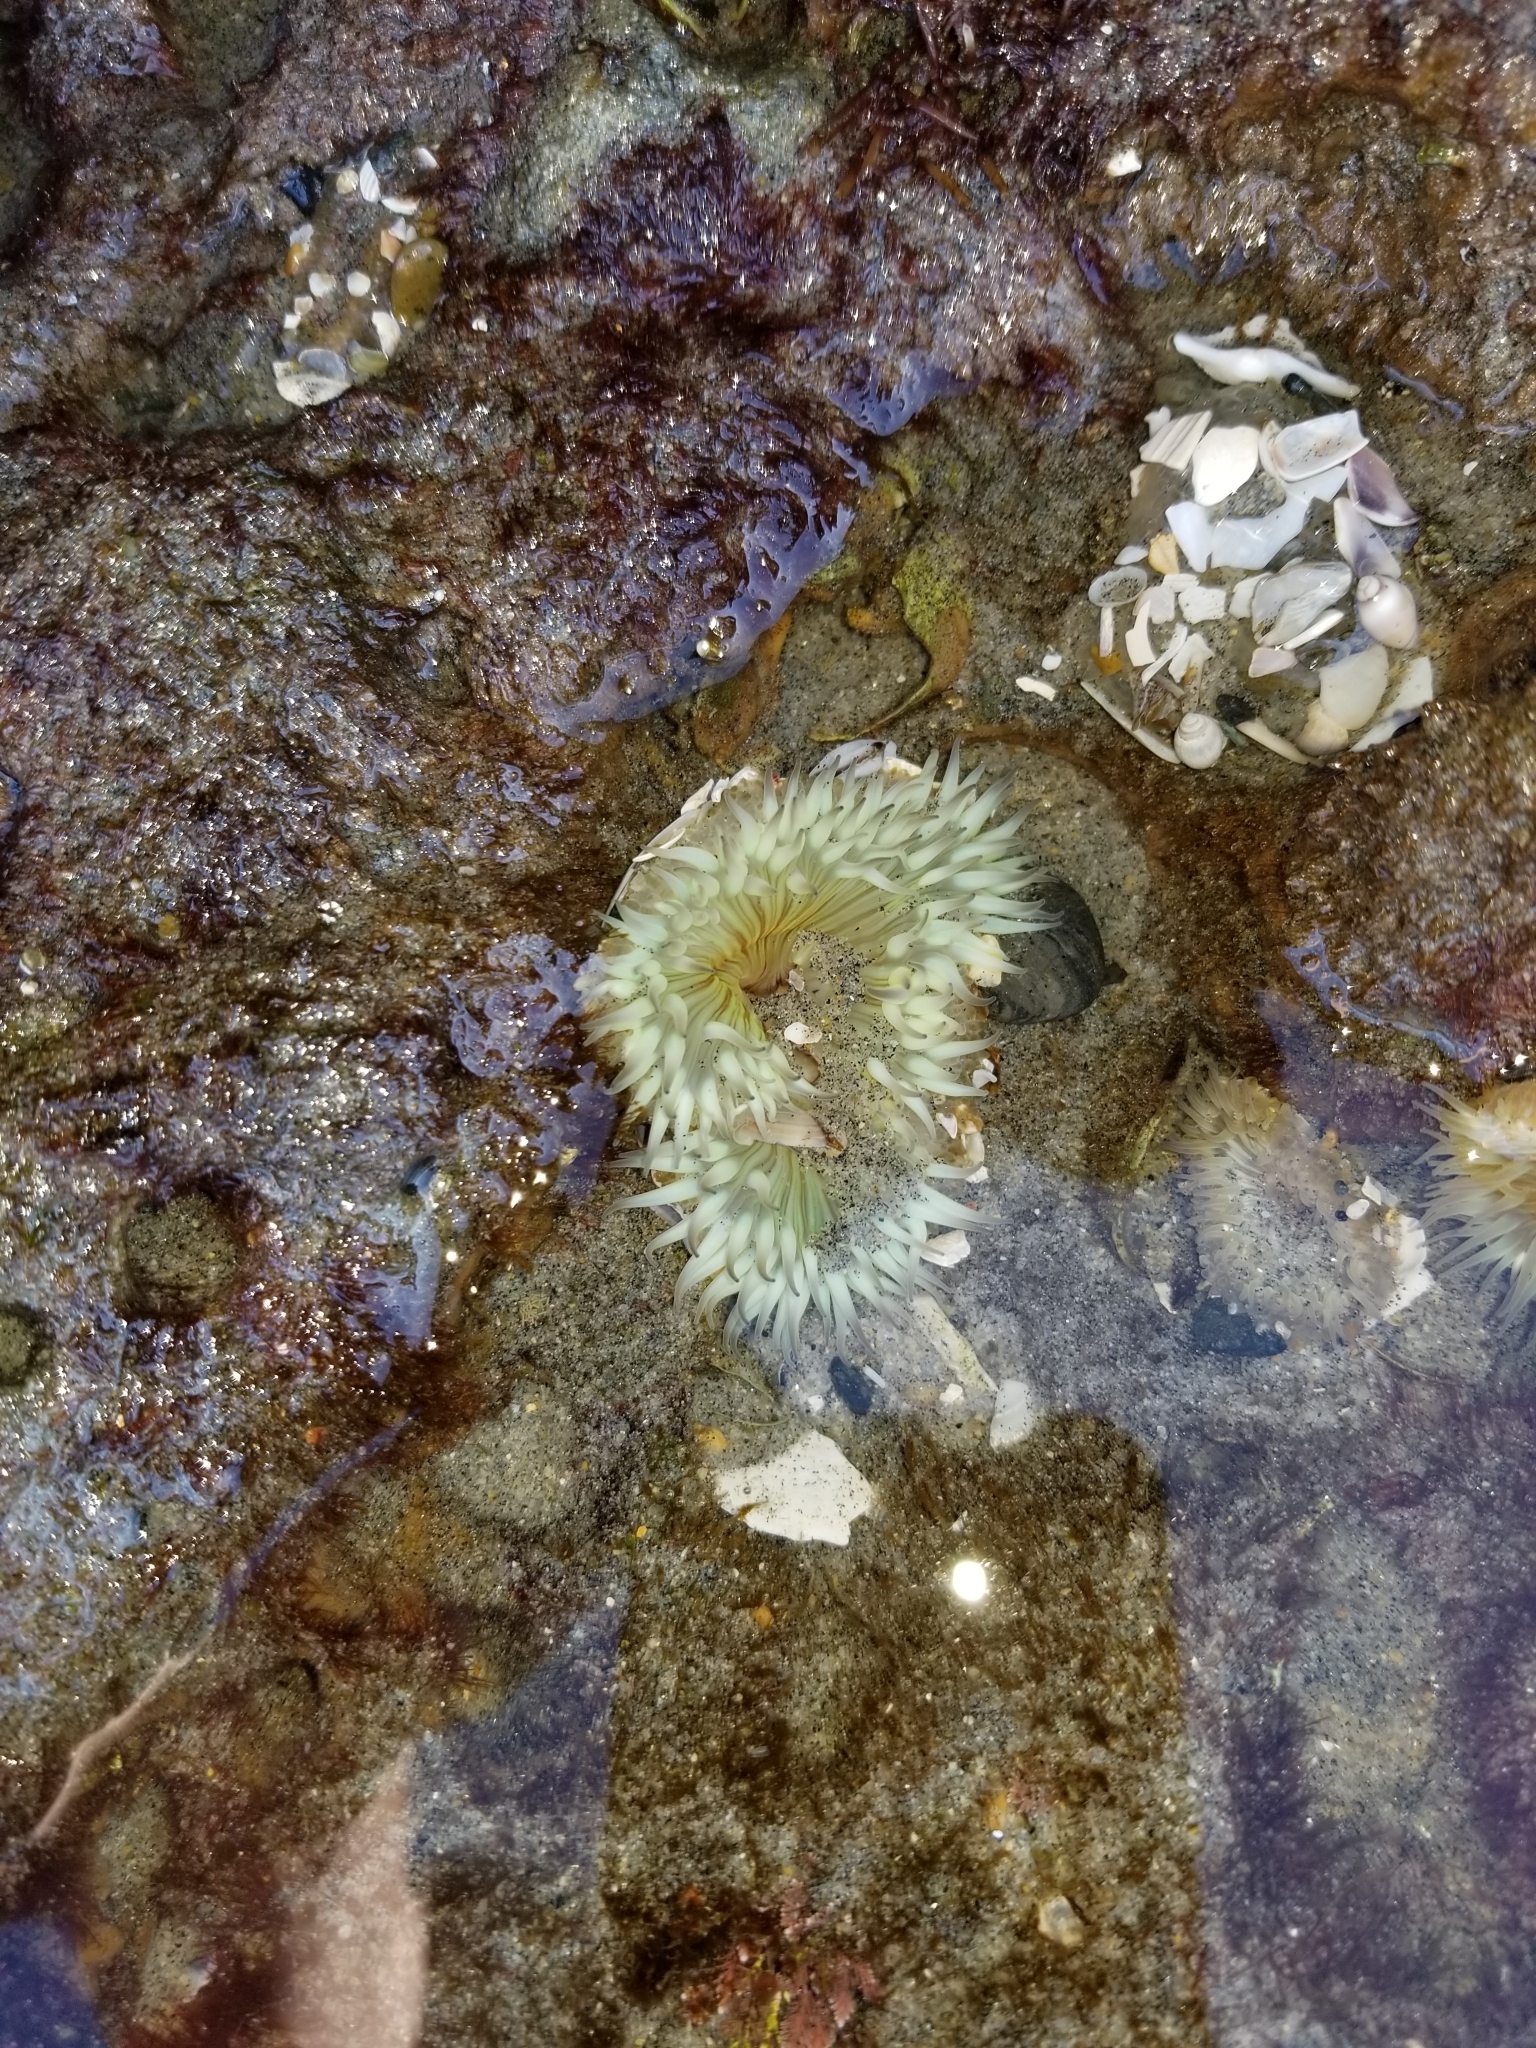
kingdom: Animalia
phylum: Cnidaria
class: Anthozoa
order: Actiniaria
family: Actiniidae
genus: Anthopleura
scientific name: Anthopleura sola
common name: Sun anemone
